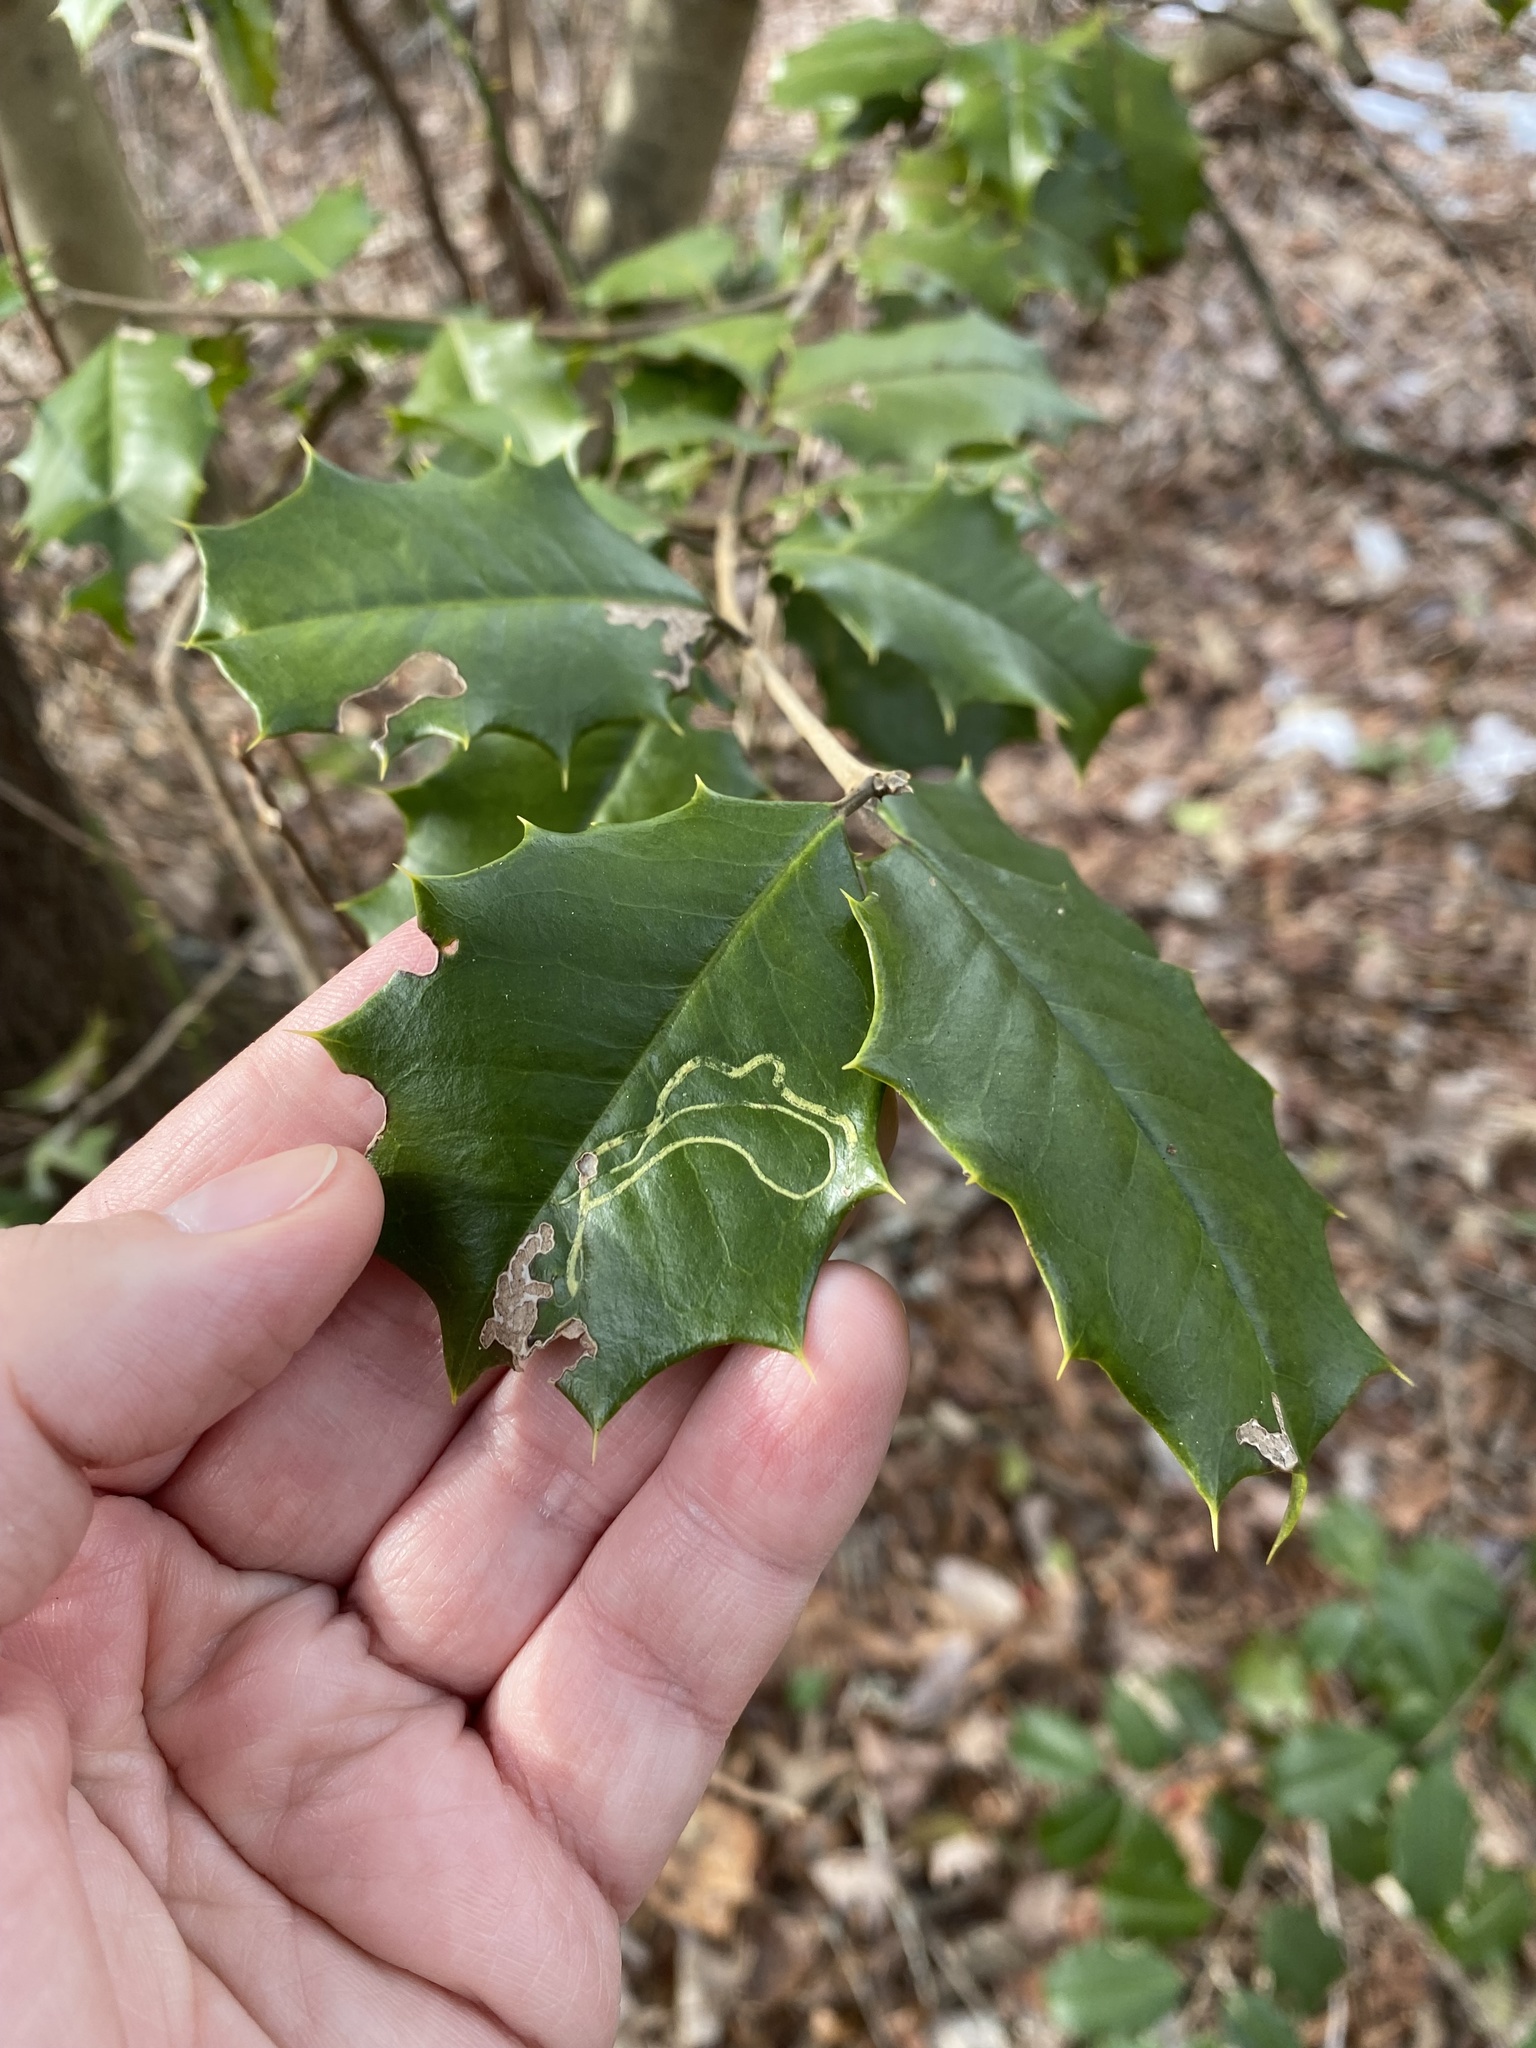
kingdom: Animalia
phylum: Arthropoda
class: Insecta
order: Diptera
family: Agromyzidae
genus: Phytomyza
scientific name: Phytomyza opacae
